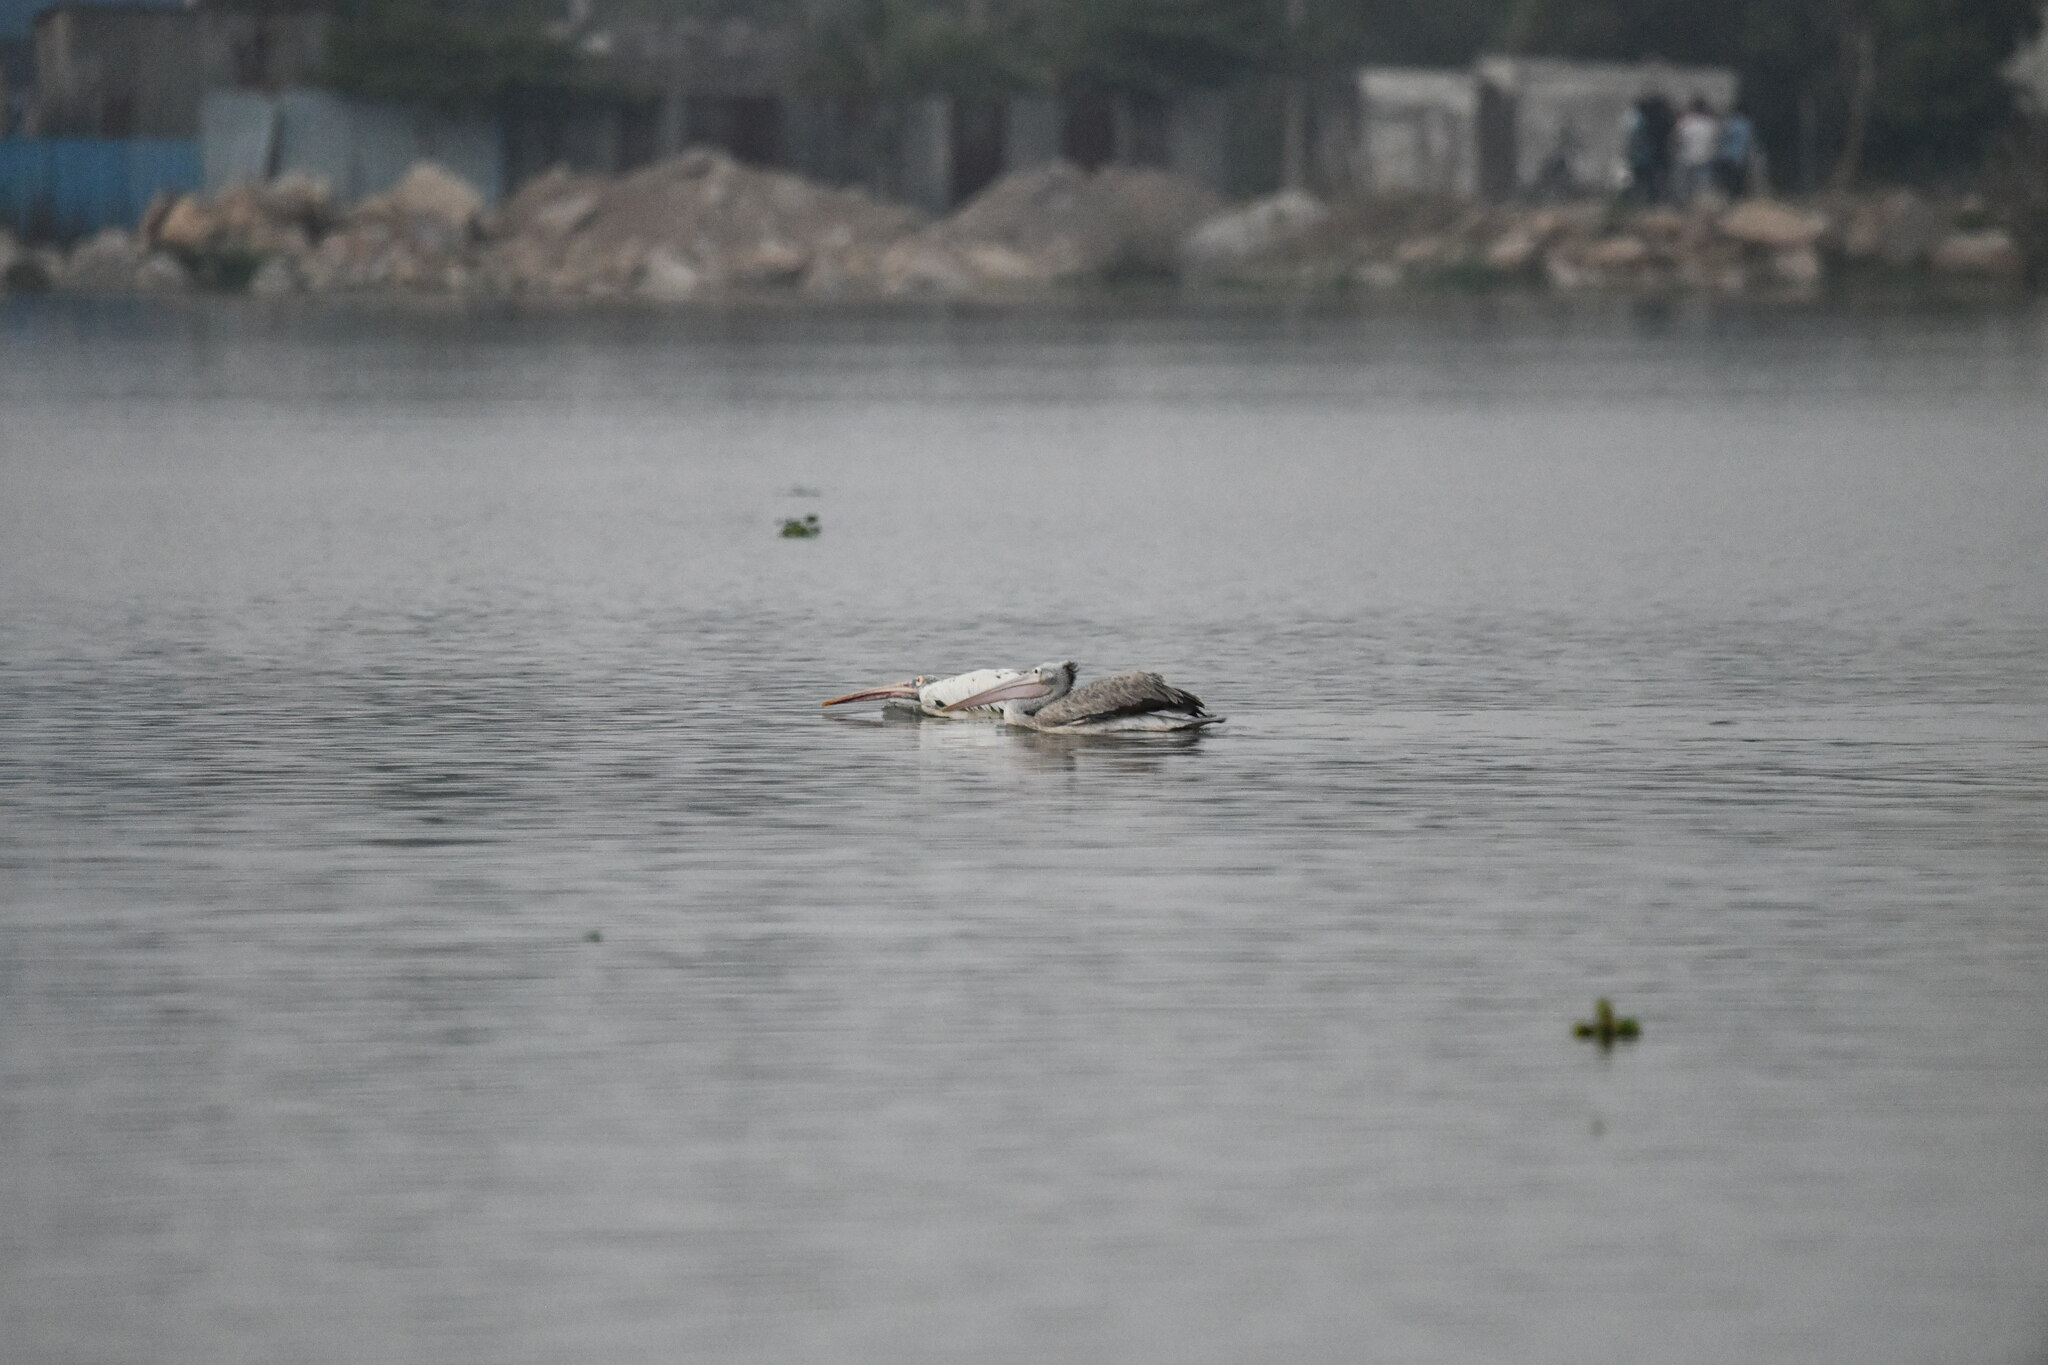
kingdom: Animalia
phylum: Chordata
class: Aves
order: Pelecaniformes
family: Pelecanidae
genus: Pelecanus
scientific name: Pelecanus philippensis
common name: Spot-billed pelican
